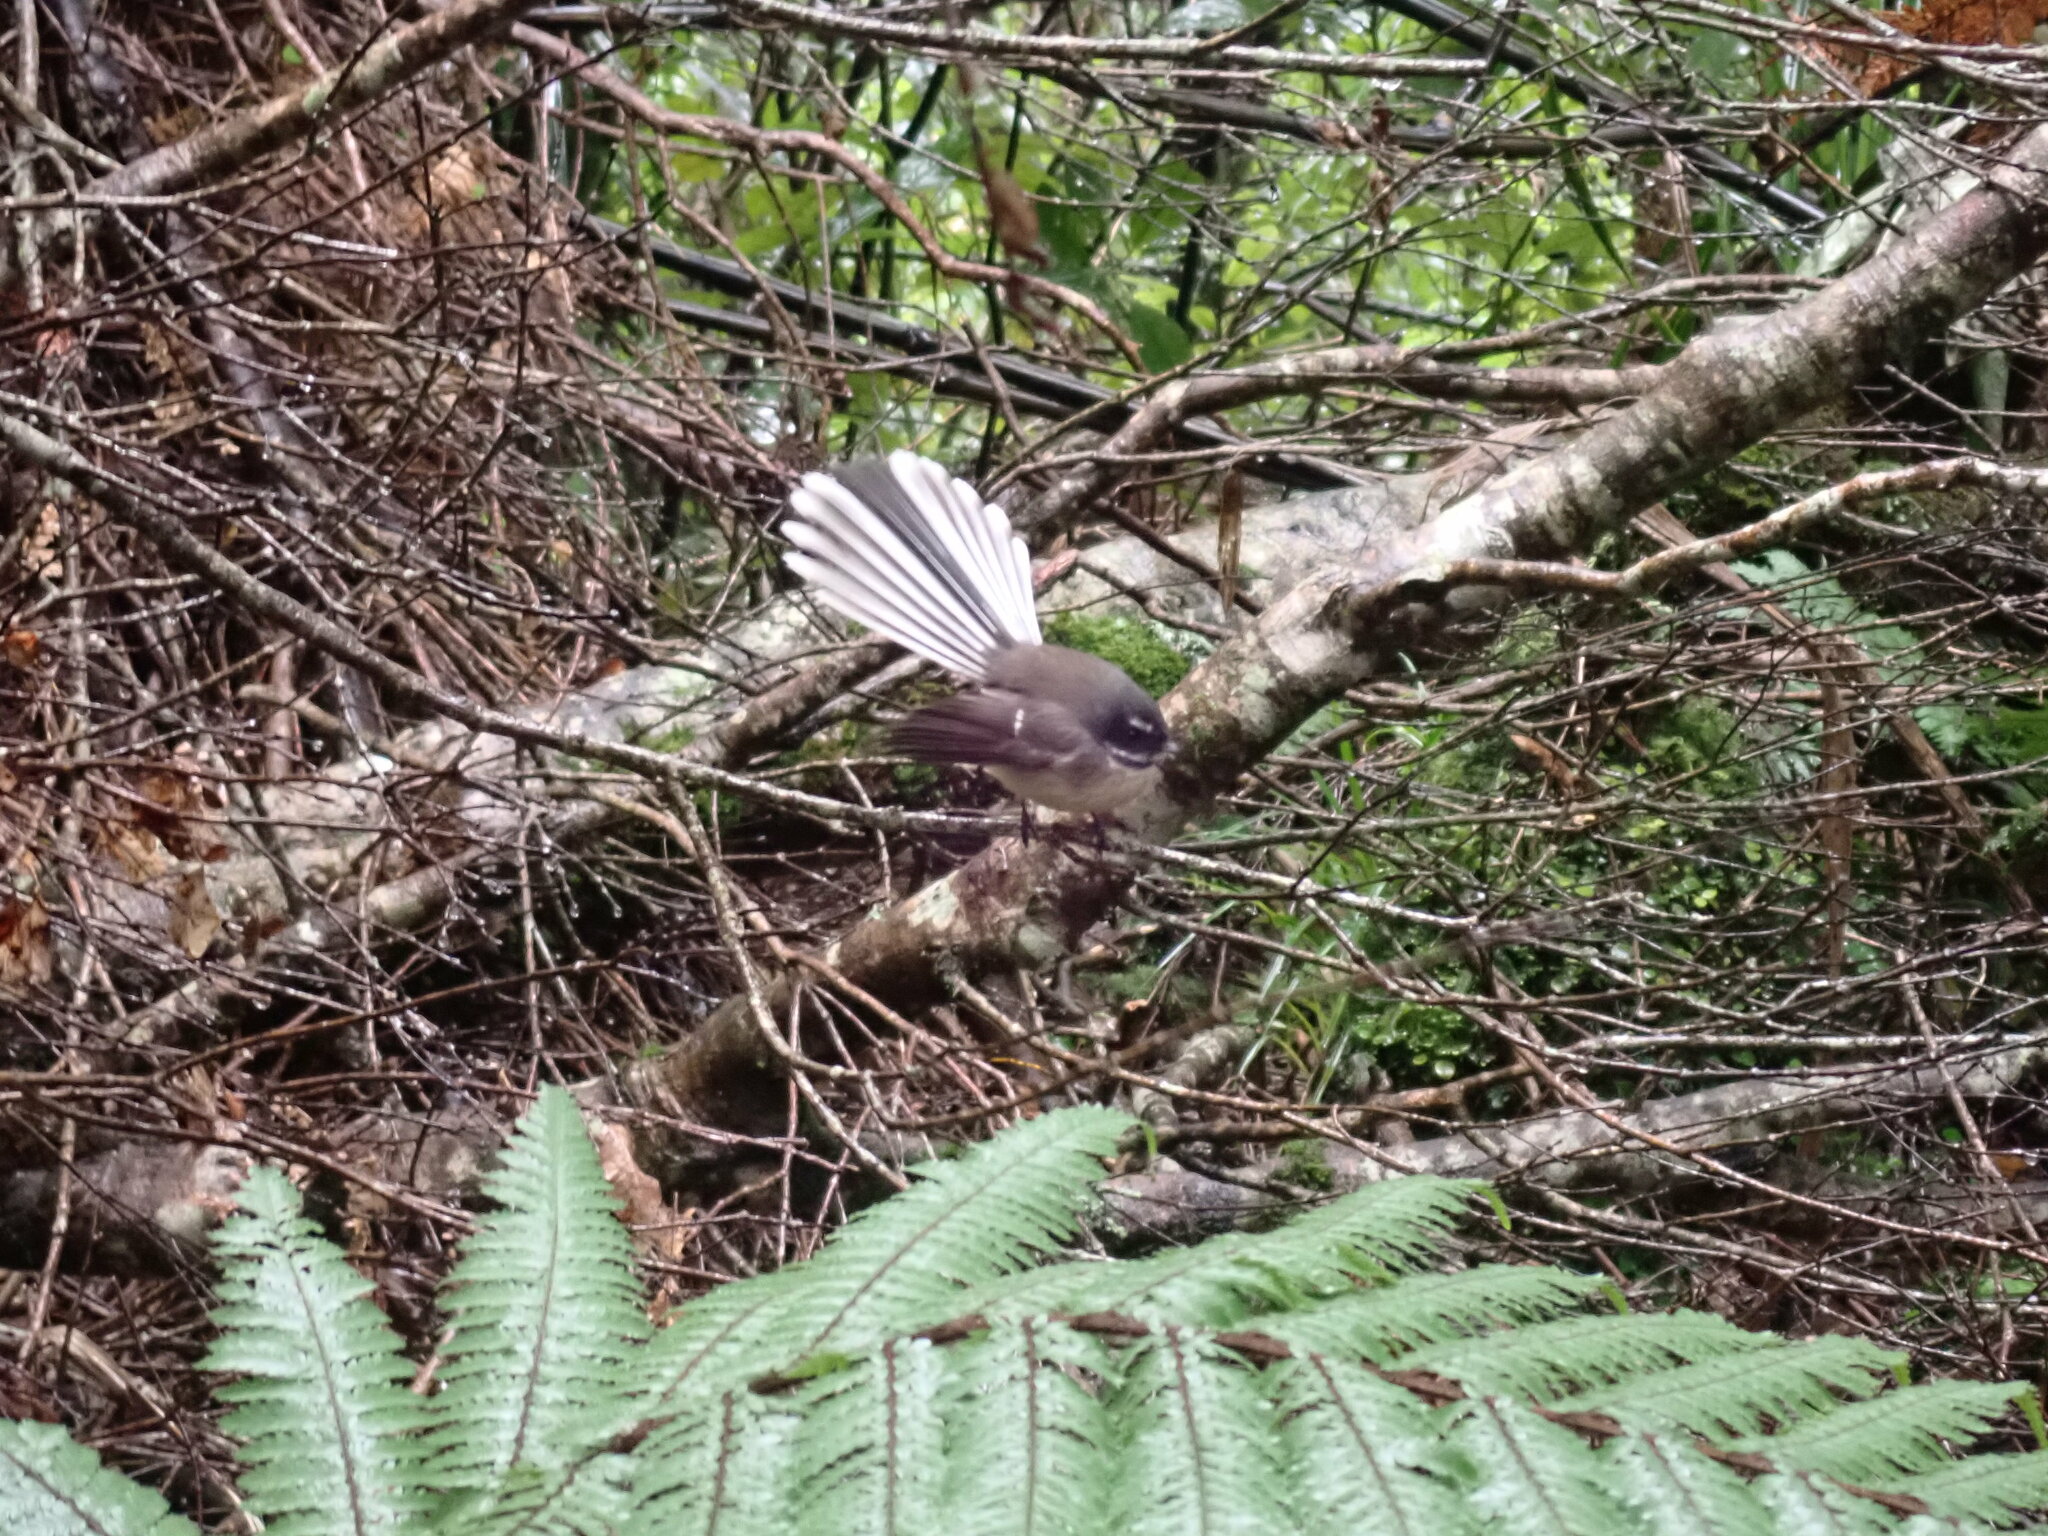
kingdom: Animalia
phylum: Chordata
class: Aves
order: Passeriformes
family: Rhipiduridae
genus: Rhipidura
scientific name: Rhipidura fuliginosa
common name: New zealand fantail
